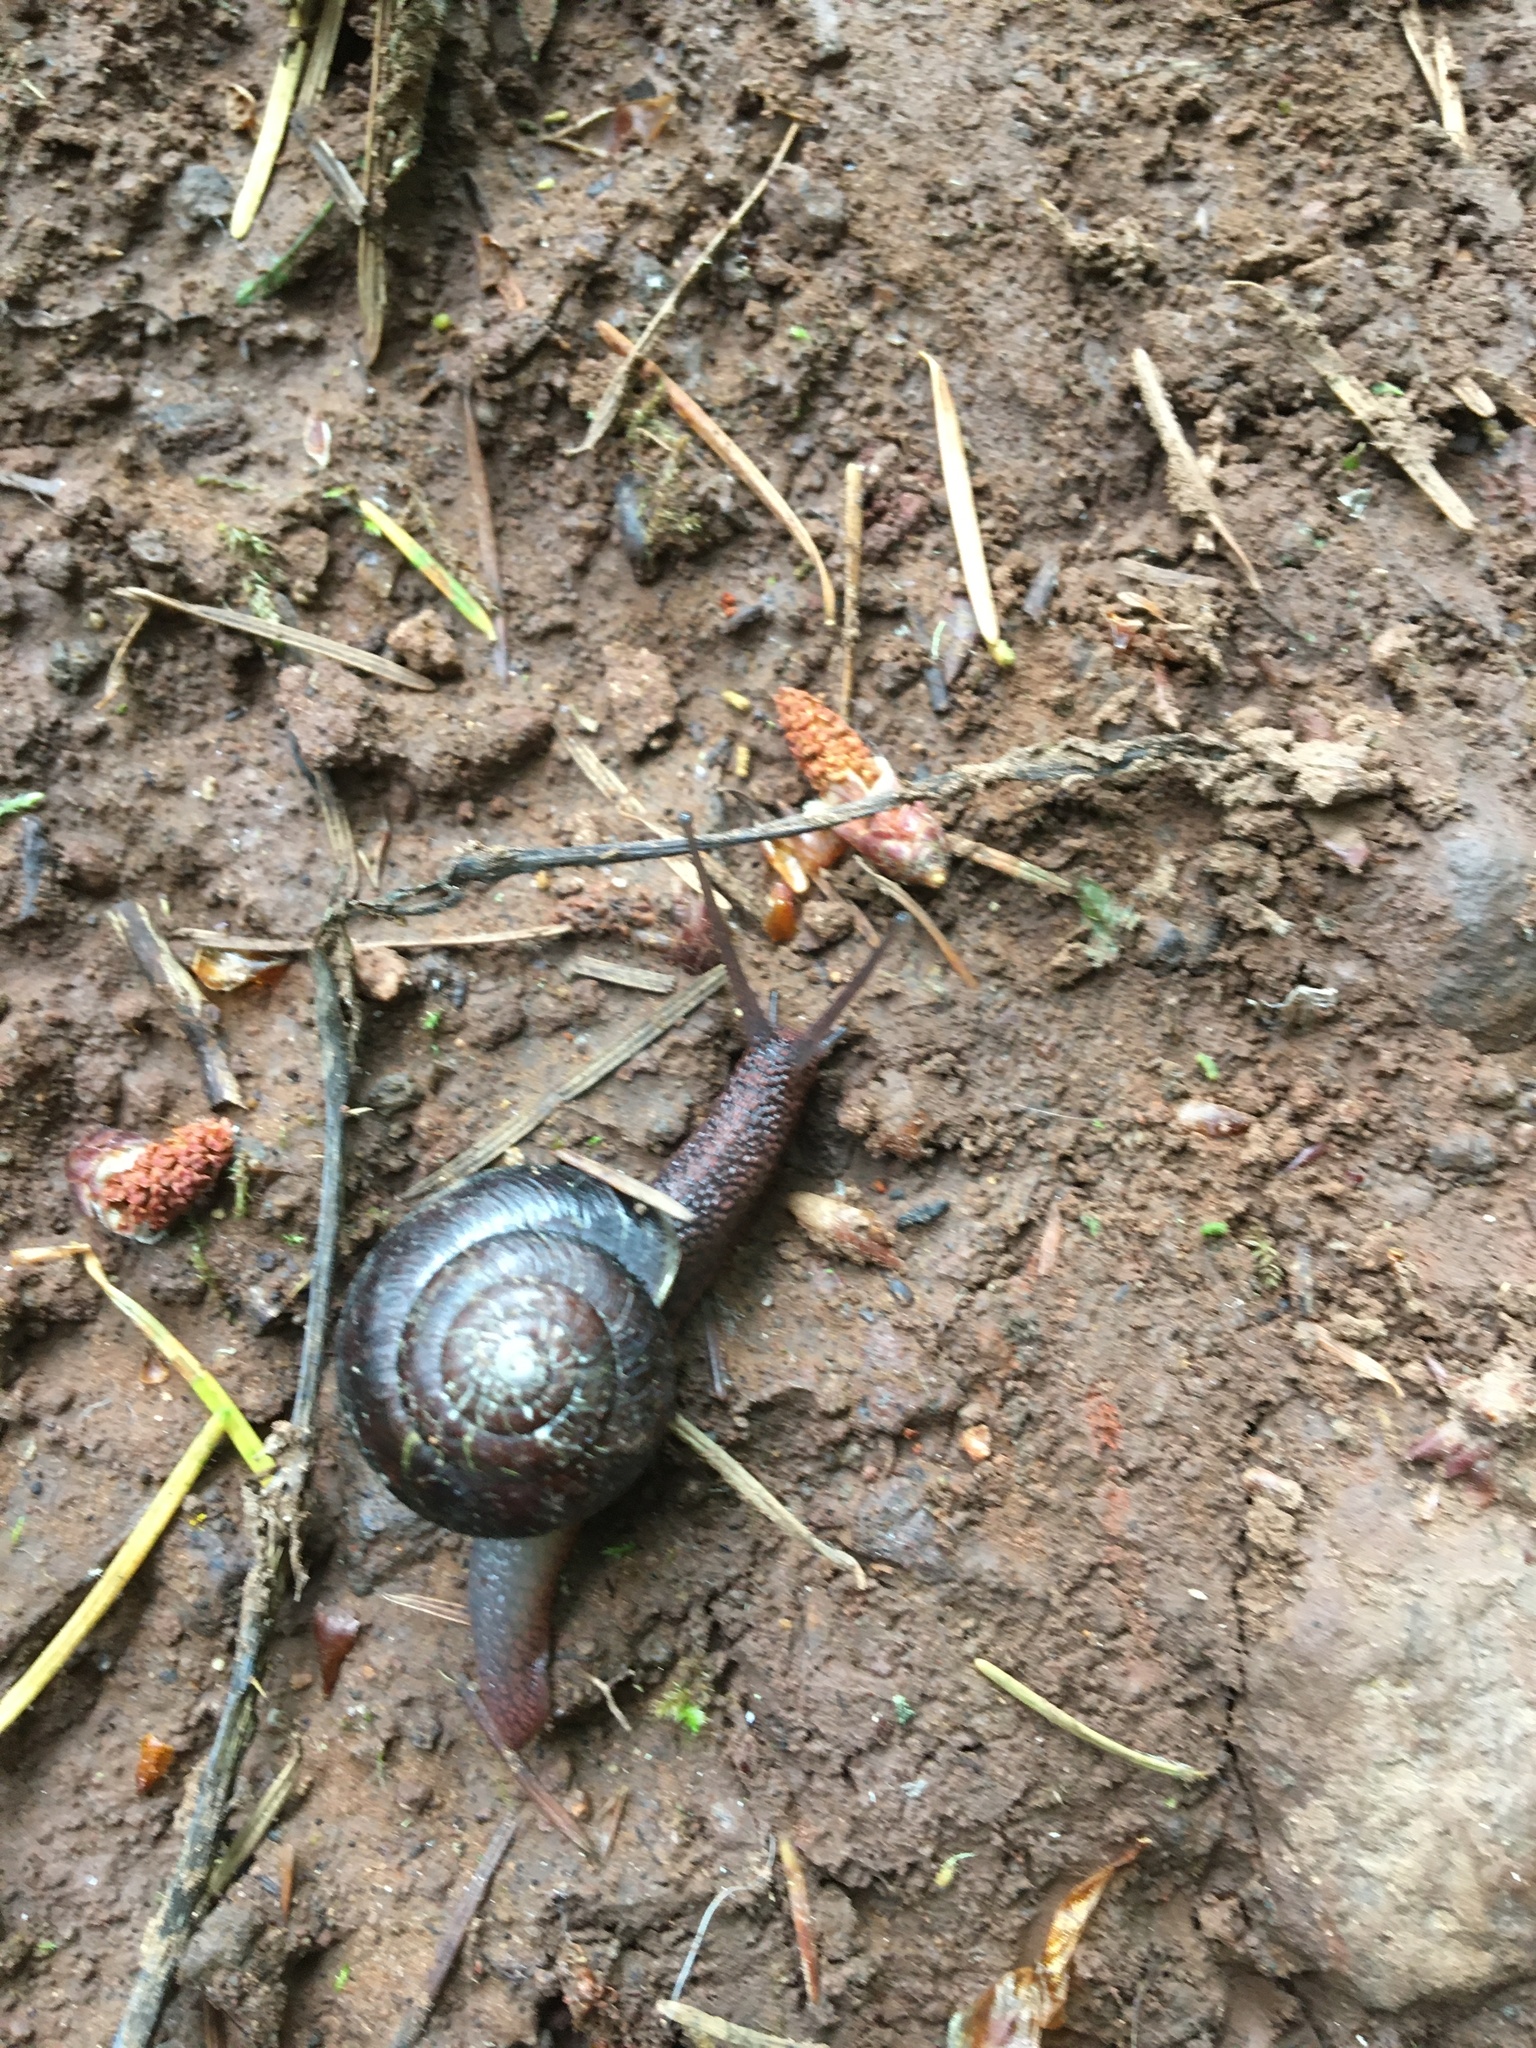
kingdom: Animalia
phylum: Mollusca
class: Gastropoda
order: Stylommatophora
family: Xanthonychidae
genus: Monadenia
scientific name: Monadenia fidelis
